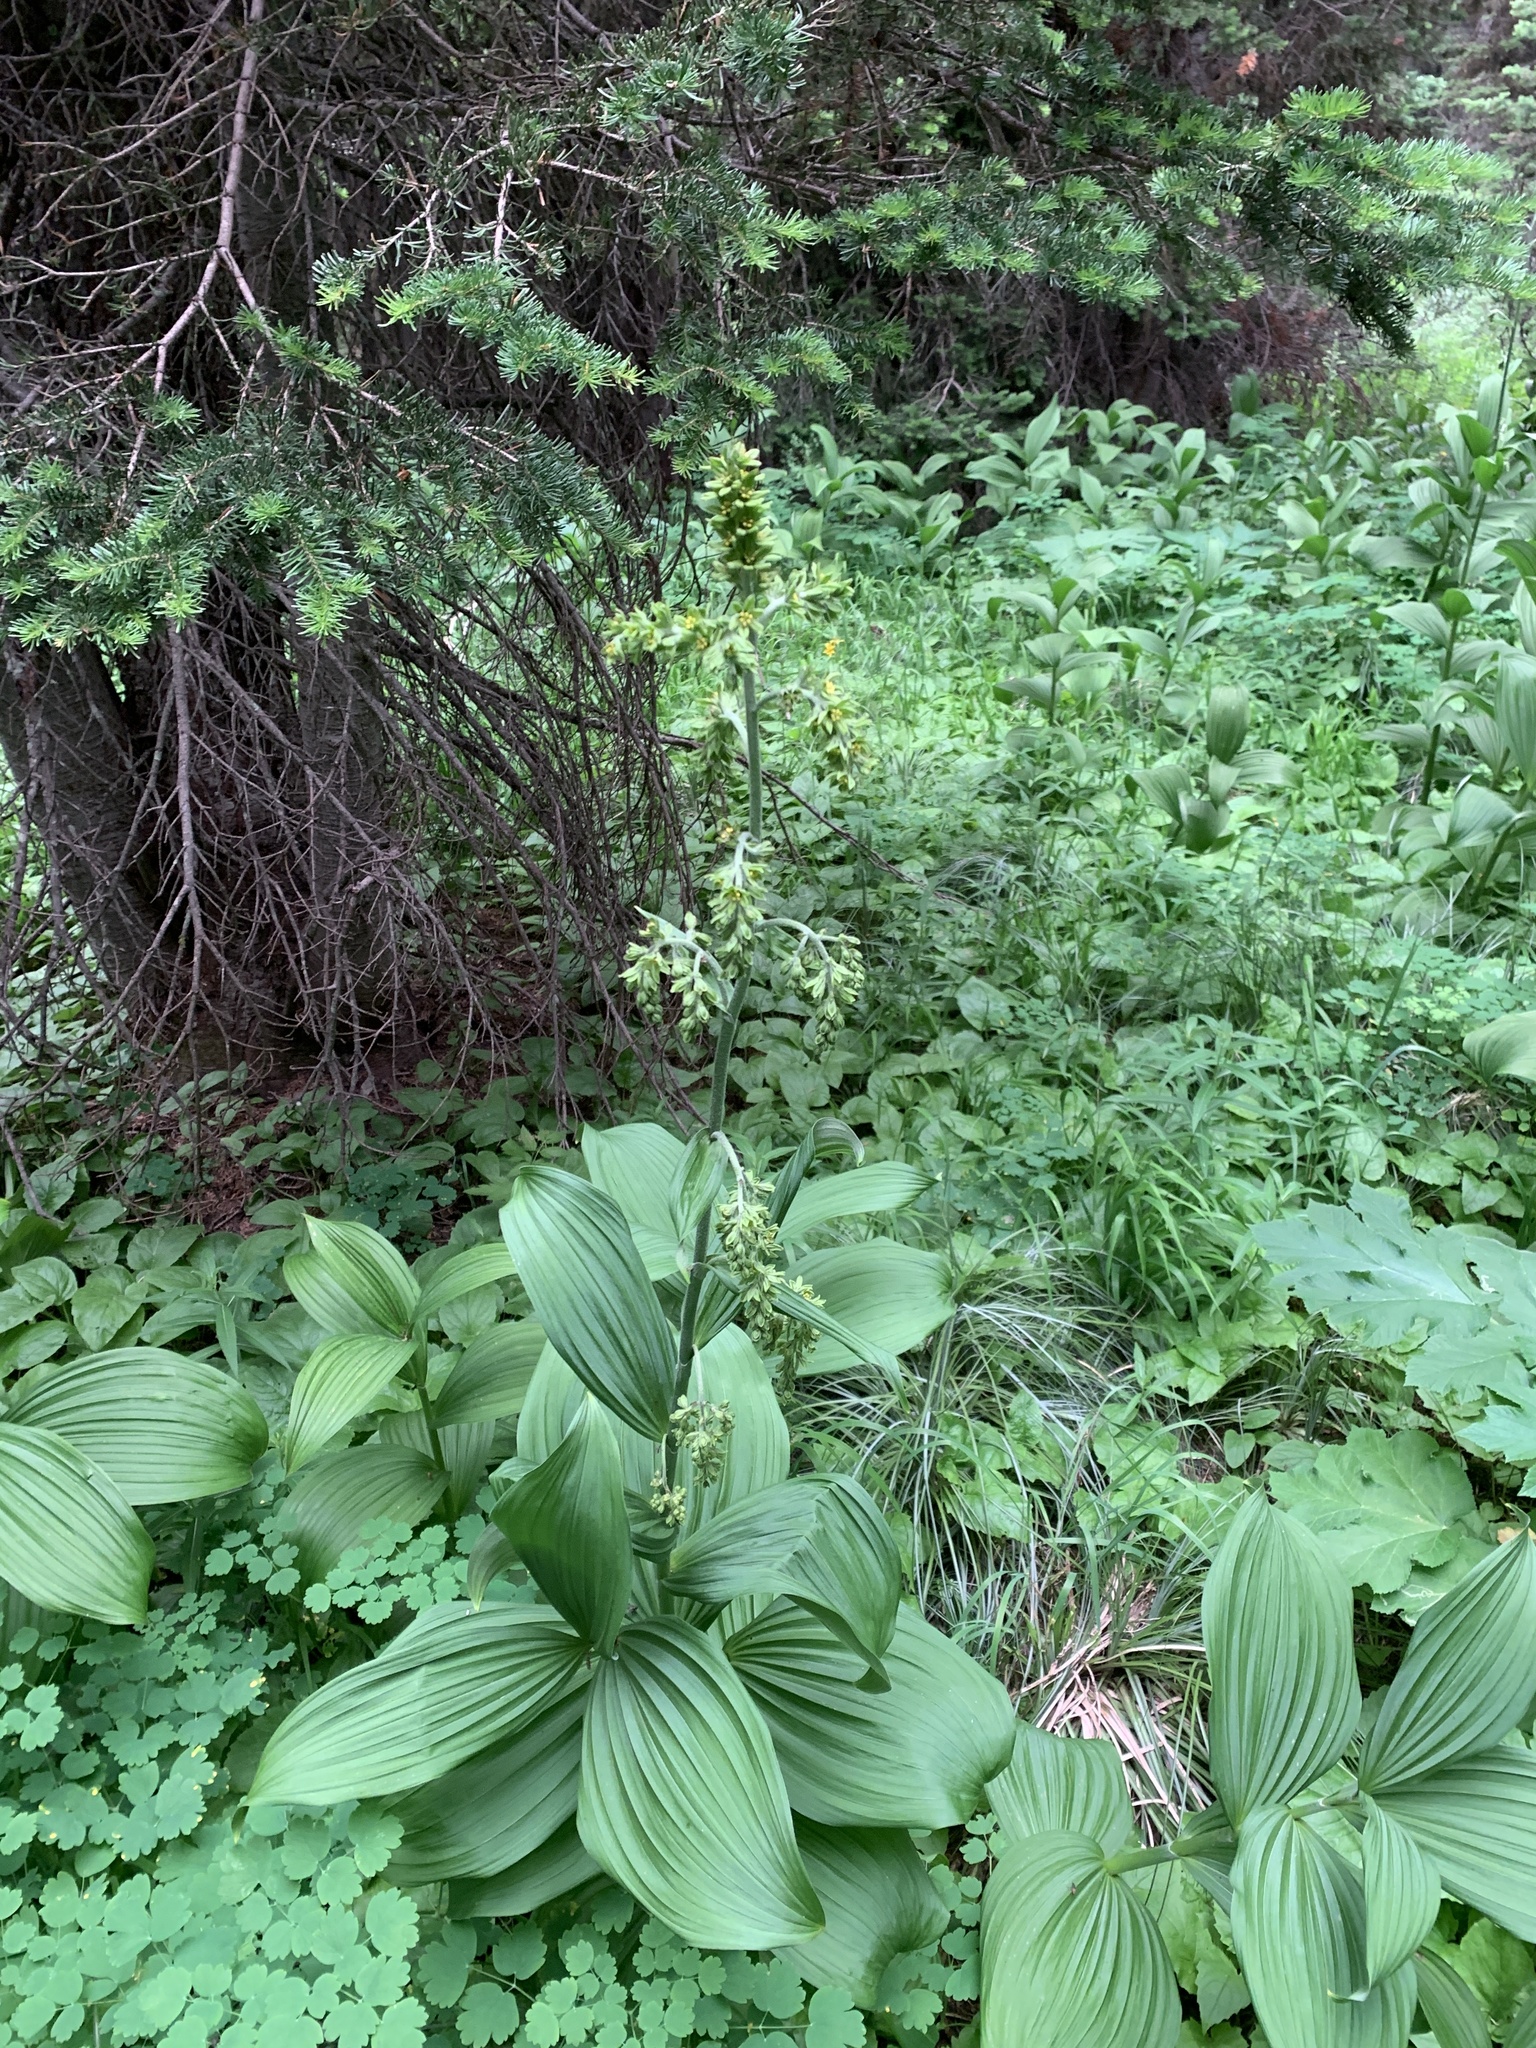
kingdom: Plantae
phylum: Tracheophyta
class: Liliopsida
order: Liliales
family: Melanthiaceae
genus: Veratrum
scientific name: Veratrum viride
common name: American false hellebore
